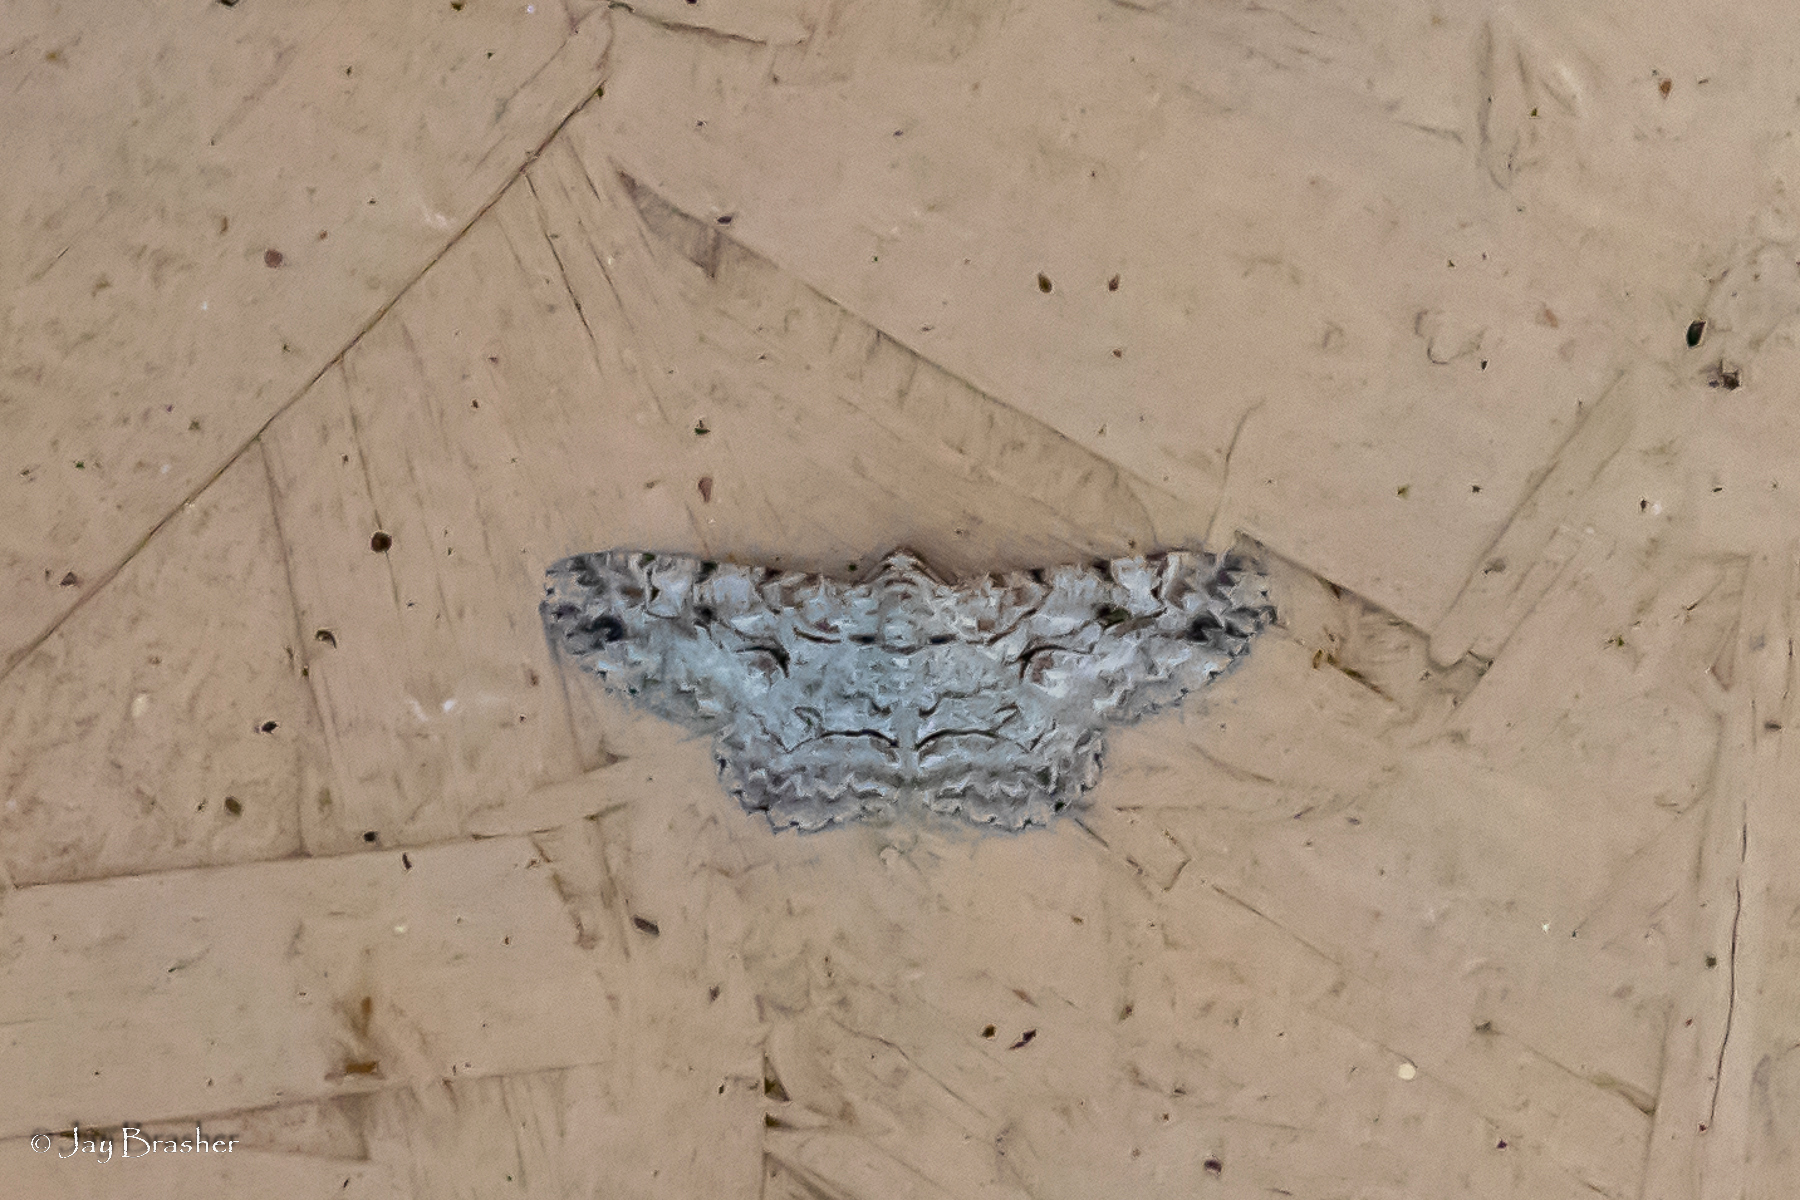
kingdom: Animalia
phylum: Arthropoda
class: Insecta
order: Lepidoptera
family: Geometridae
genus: Iridopsis
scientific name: Iridopsis defectaria
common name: Brown-shaded gray
